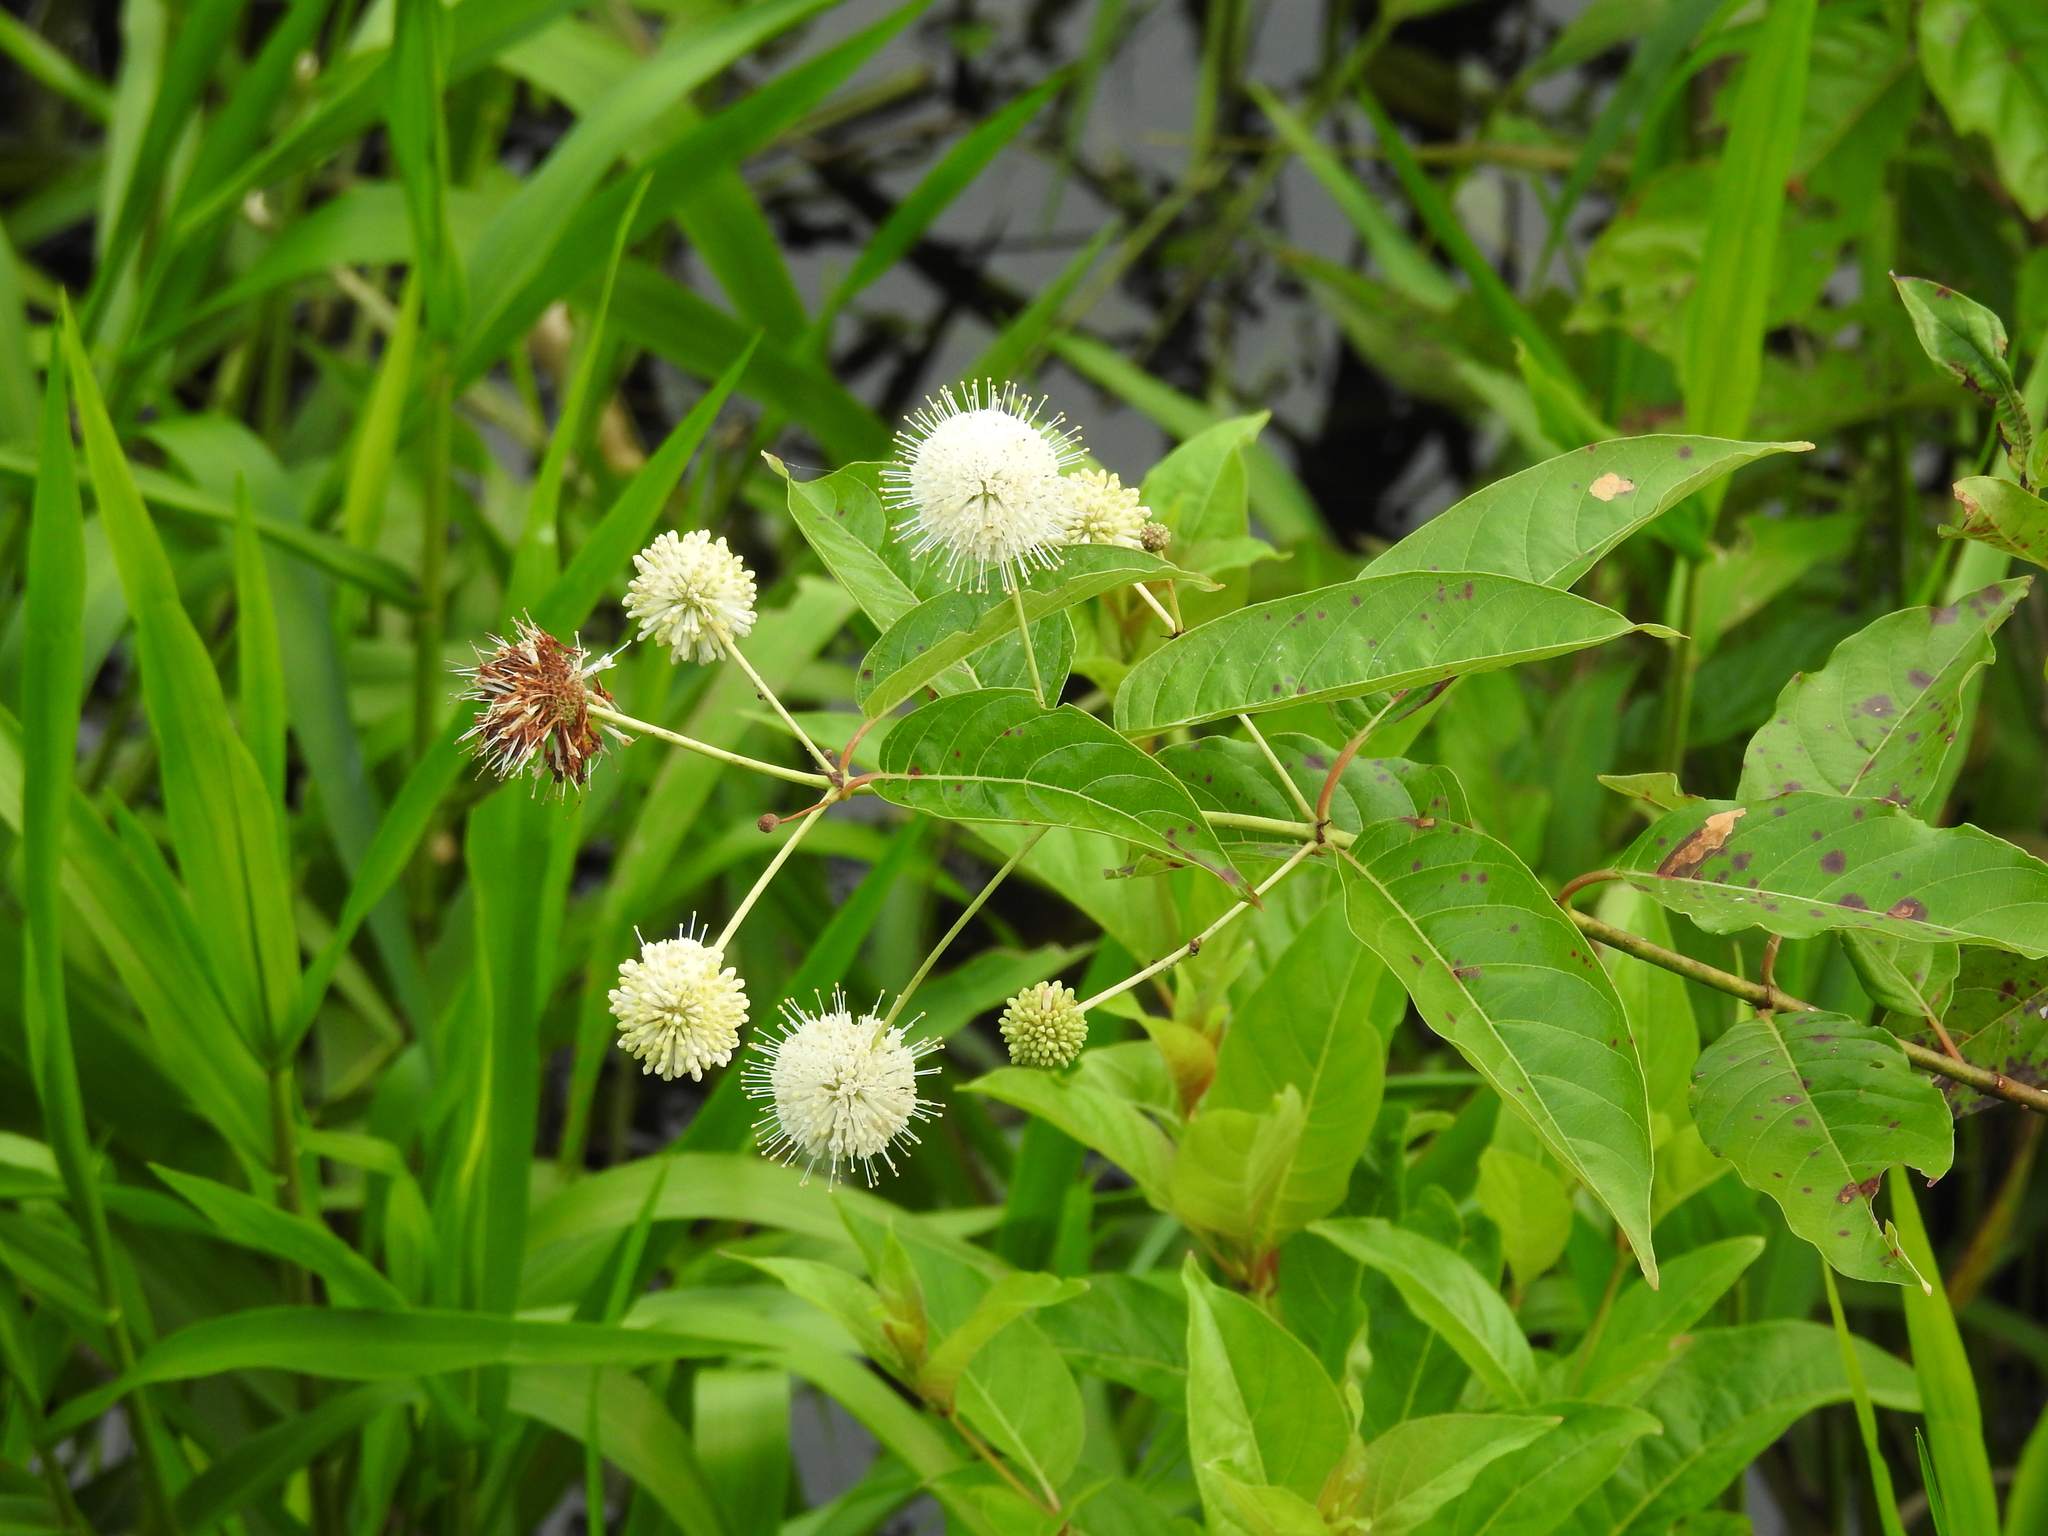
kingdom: Plantae
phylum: Tracheophyta
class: Magnoliopsida
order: Gentianales
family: Rubiaceae
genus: Cephalanthus
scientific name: Cephalanthus occidentalis
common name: Button-willow
